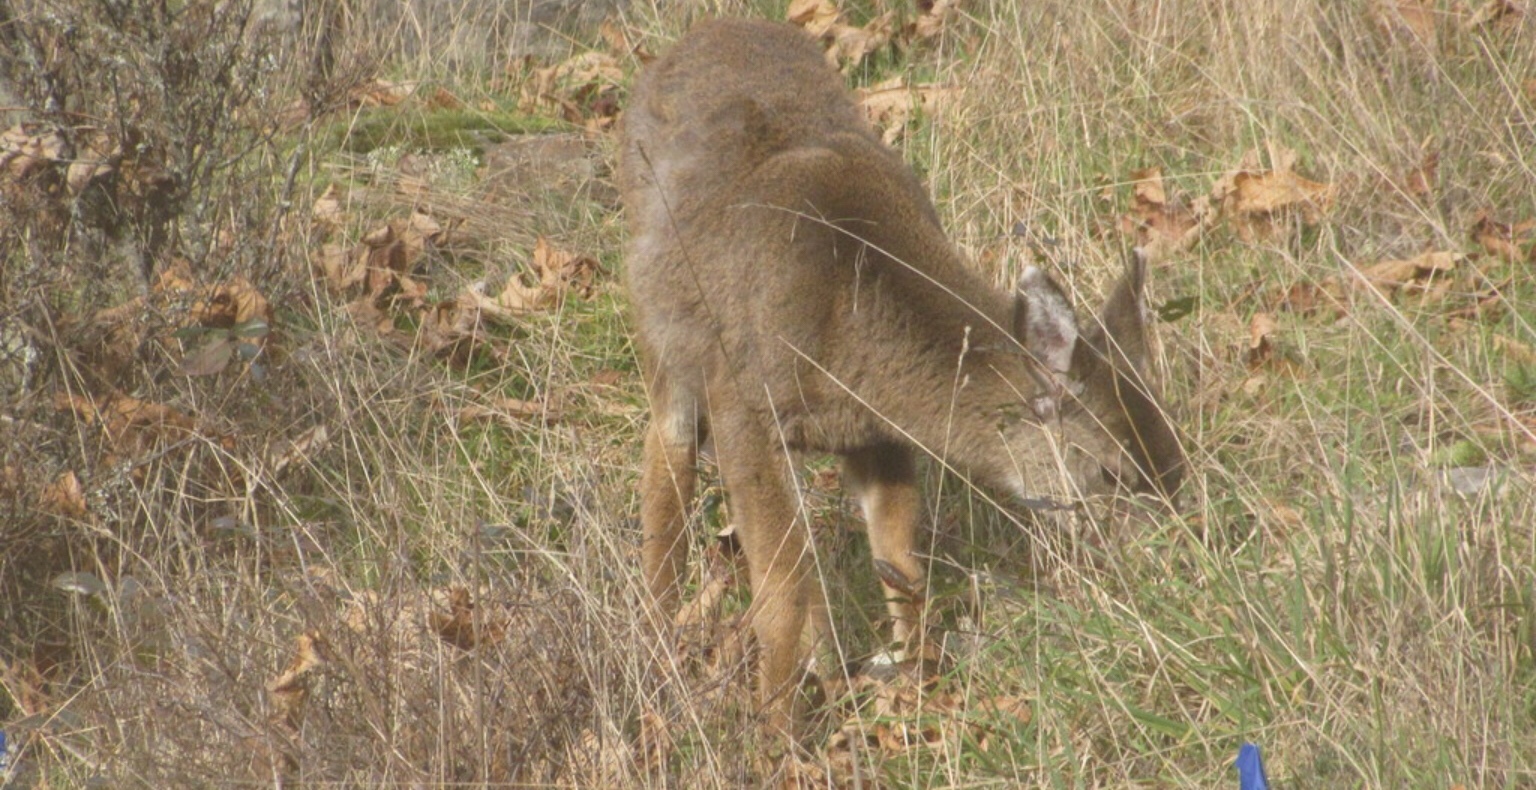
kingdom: Animalia
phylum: Chordata
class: Mammalia
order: Artiodactyla
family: Cervidae
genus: Odocoileus
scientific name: Odocoileus hemionus
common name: Mule deer
